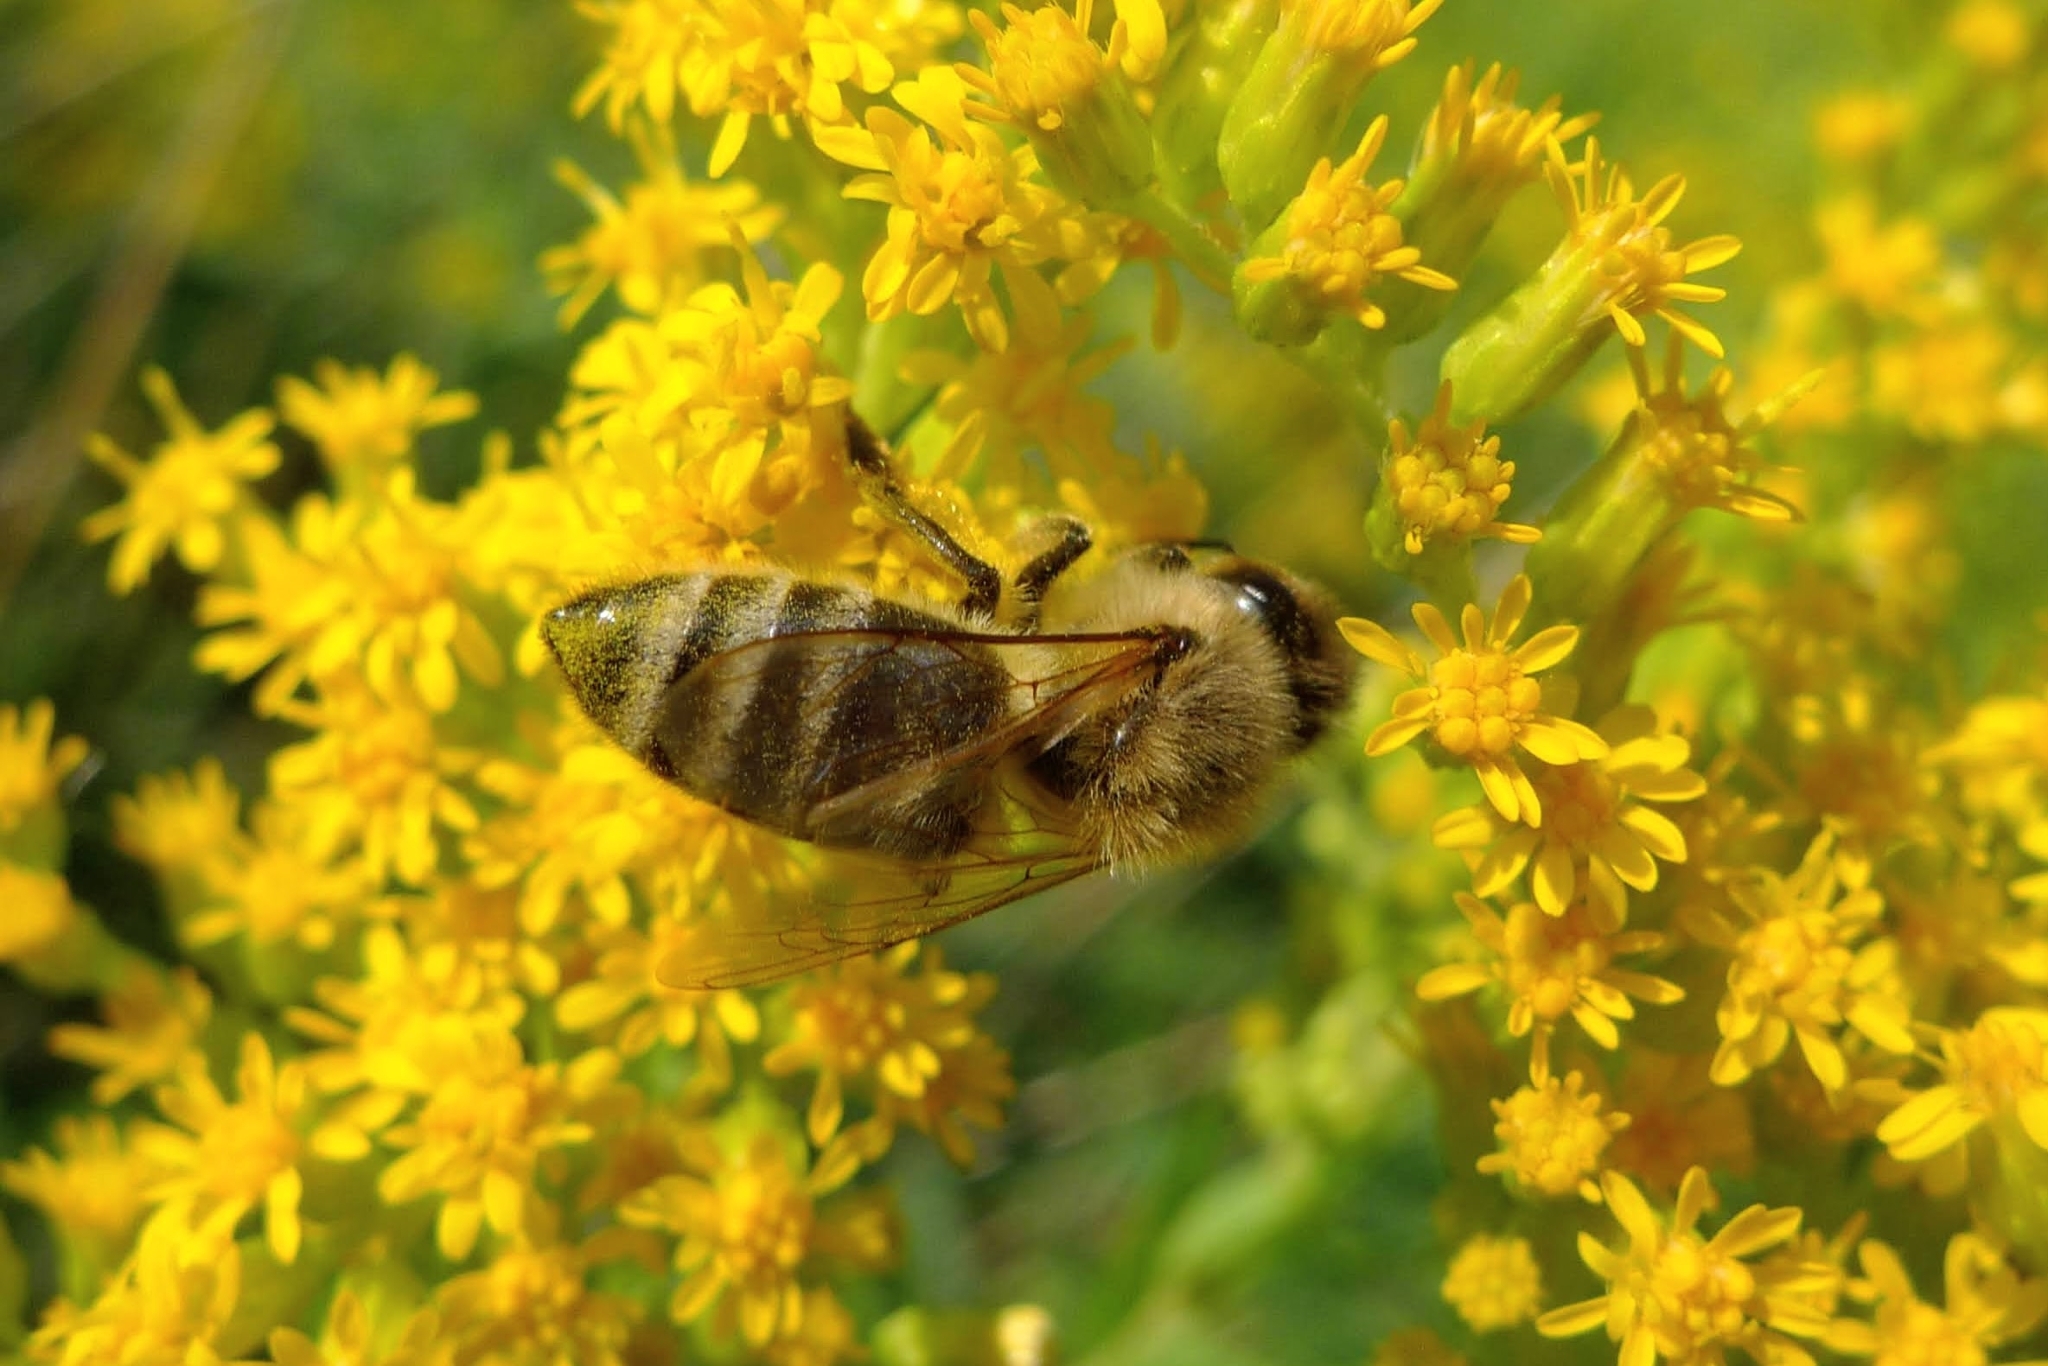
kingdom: Animalia
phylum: Arthropoda
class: Insecta
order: Hymenoptera
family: Apidae
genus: Apis
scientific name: Apis mellifera
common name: Honey bee
